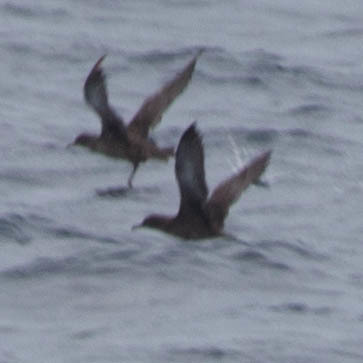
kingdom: Animalia
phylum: Chordata
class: Aves
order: Procellariiformes
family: Procellariidae
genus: Puffinus
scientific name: Puffinus griseus
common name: Sooty shearwater
